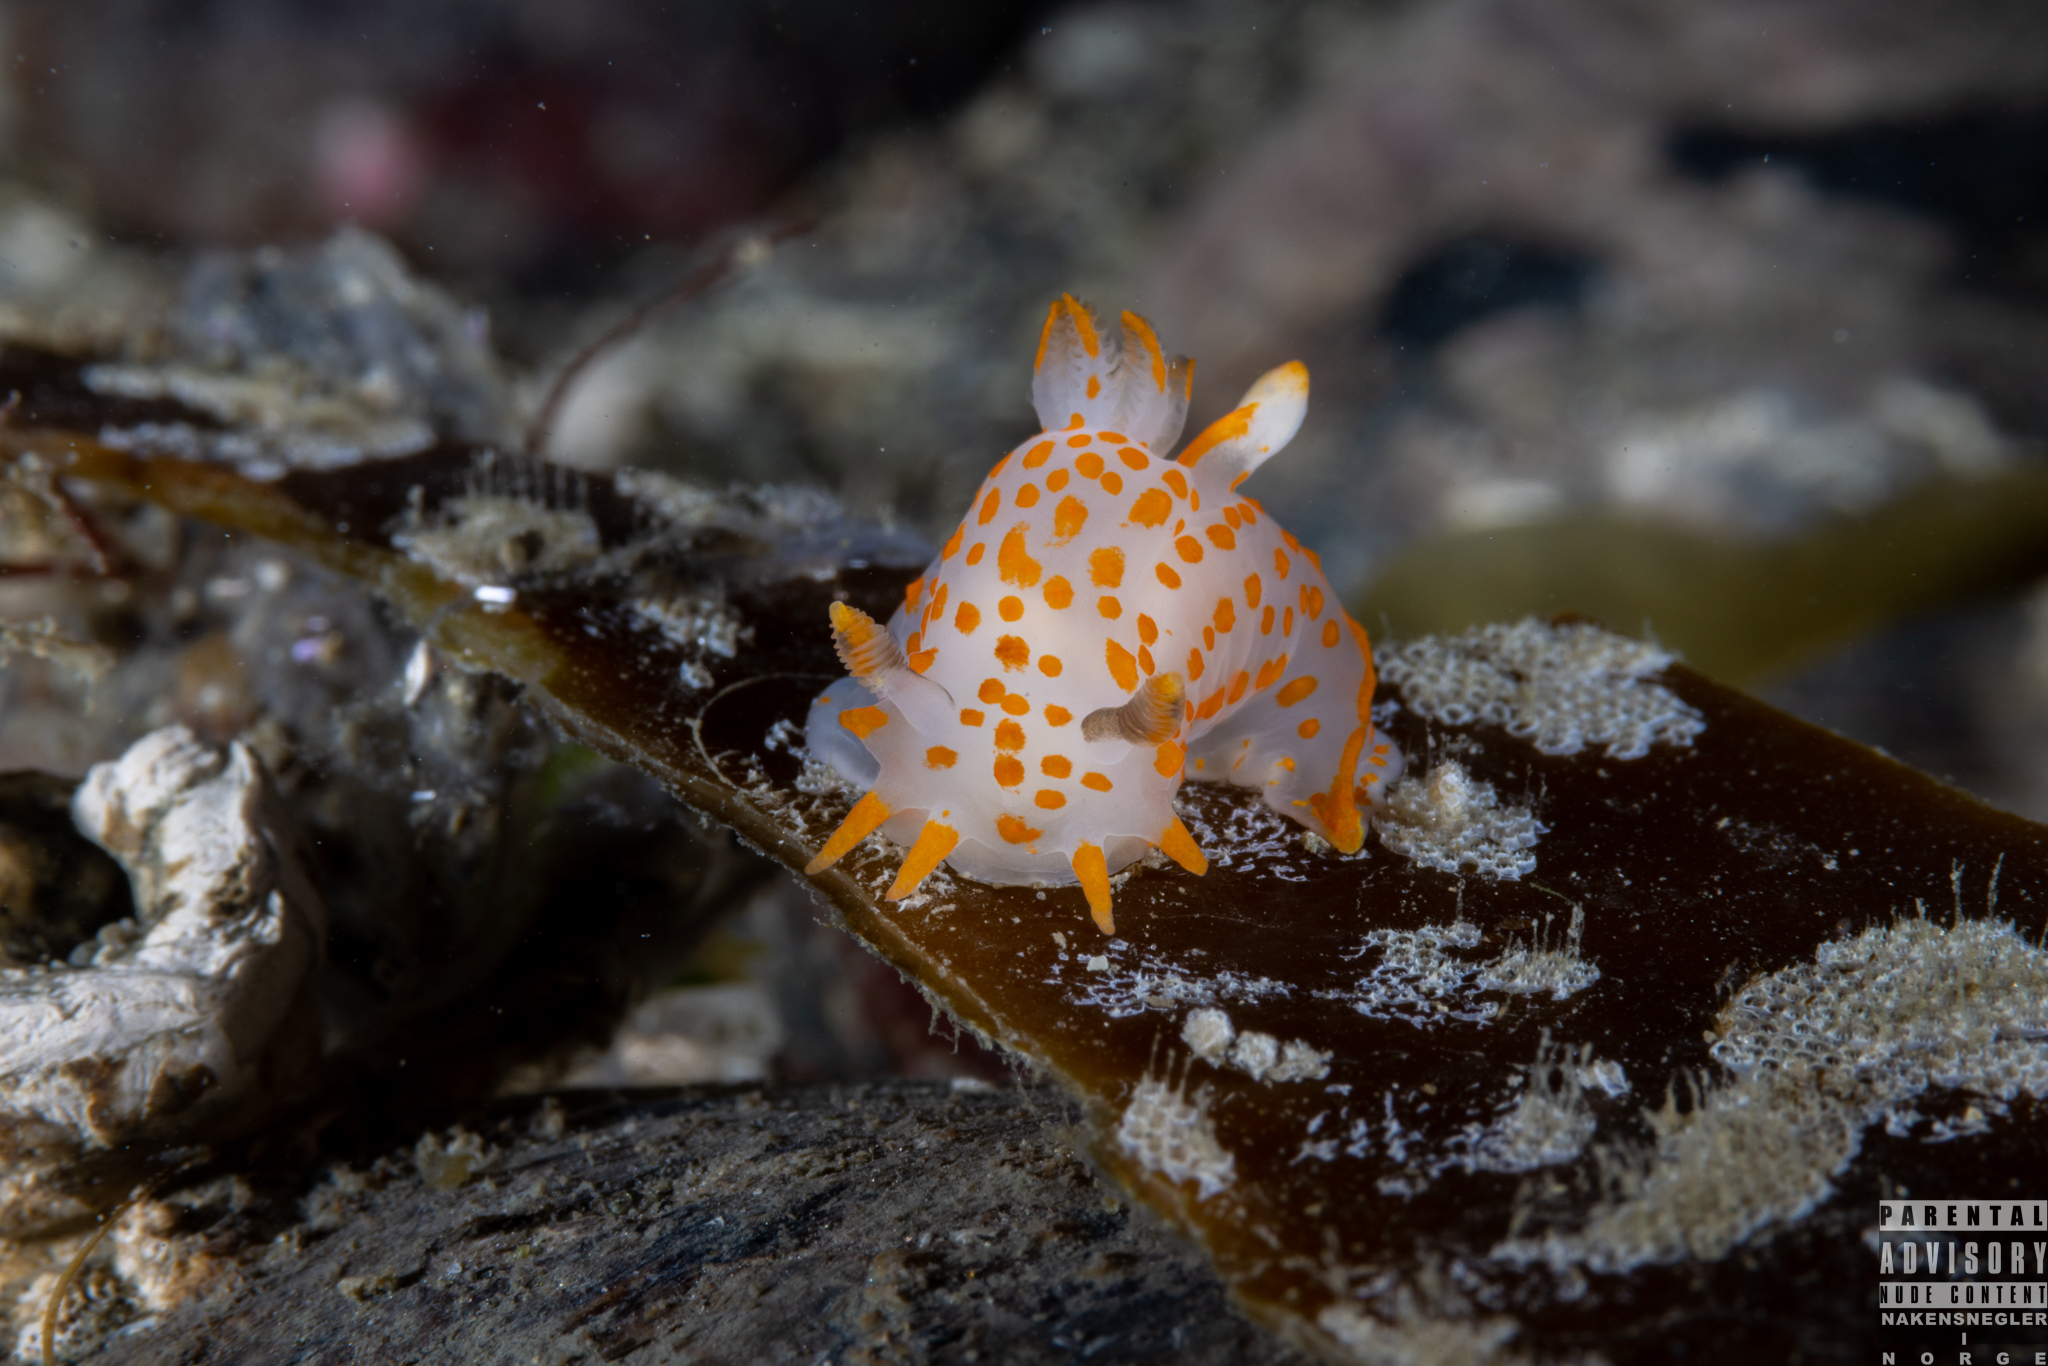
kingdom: Animalia
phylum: Mollusca
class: Gastropoda
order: Nudibranchia
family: Polyceridae
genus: Polycera
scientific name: Polycera quadrilineata
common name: Four-striped polycera
